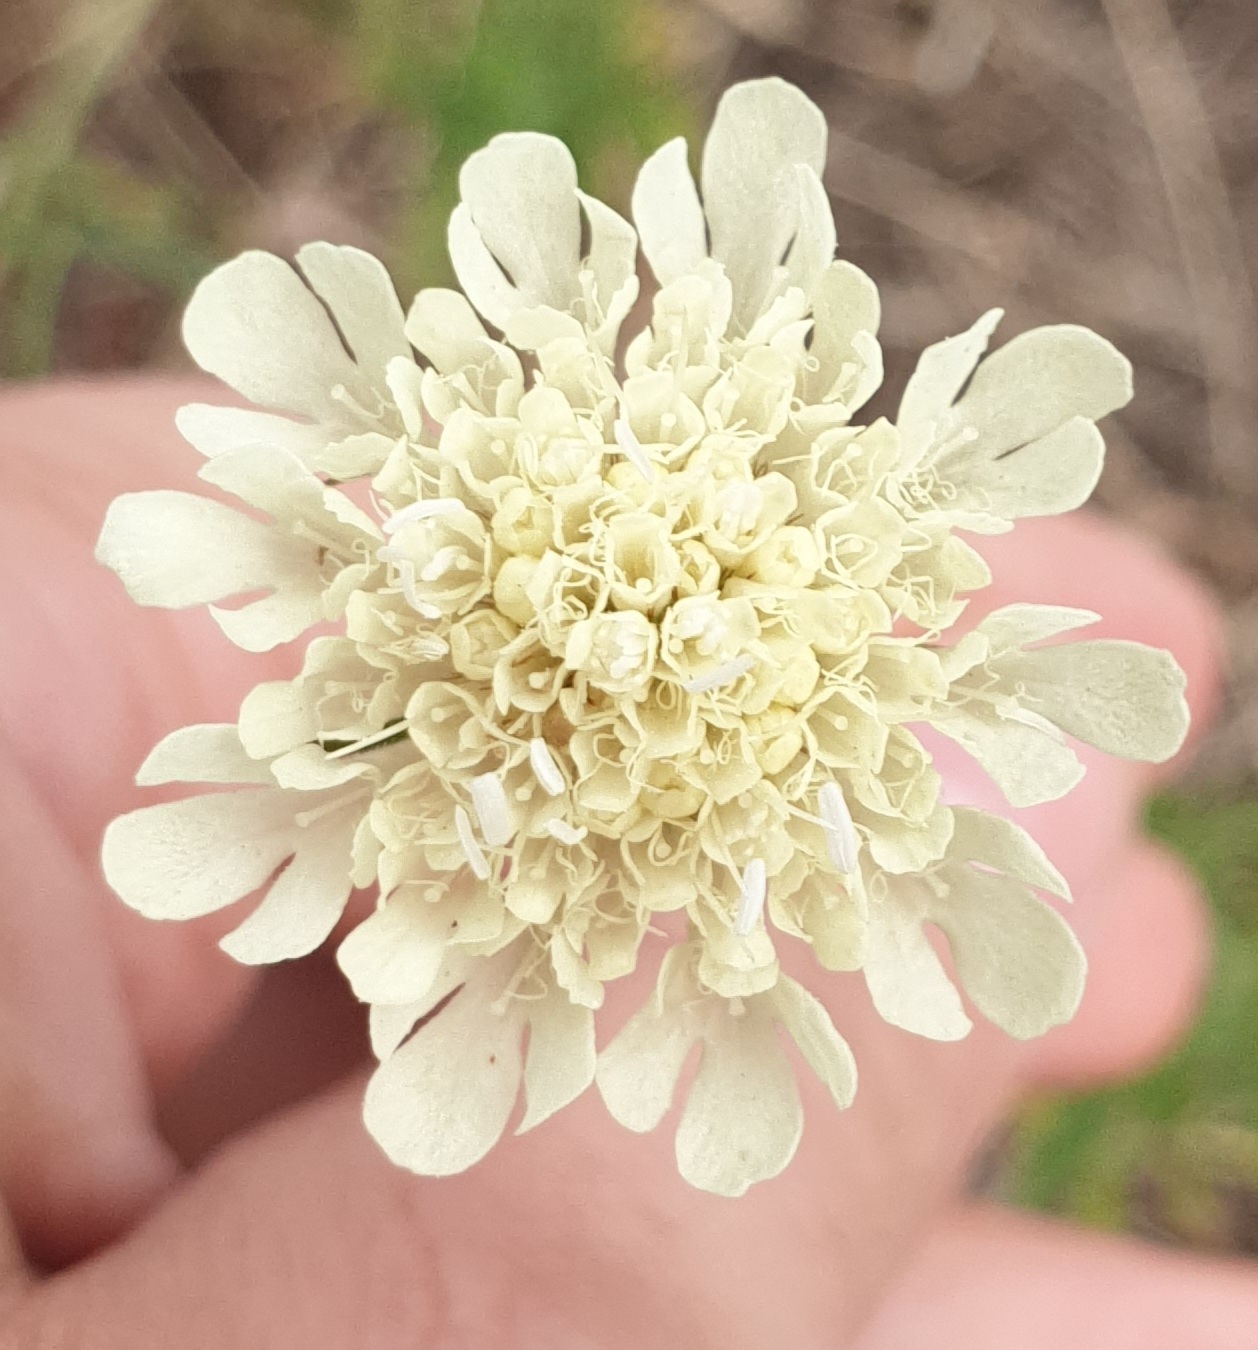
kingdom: Plantae
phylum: Tracheophyta
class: Magnoliopsida
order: Dipsacales
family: Caprifoliaceae
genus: Scabiosa
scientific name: Scabiosa ochroleuca
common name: Cream pincushions
